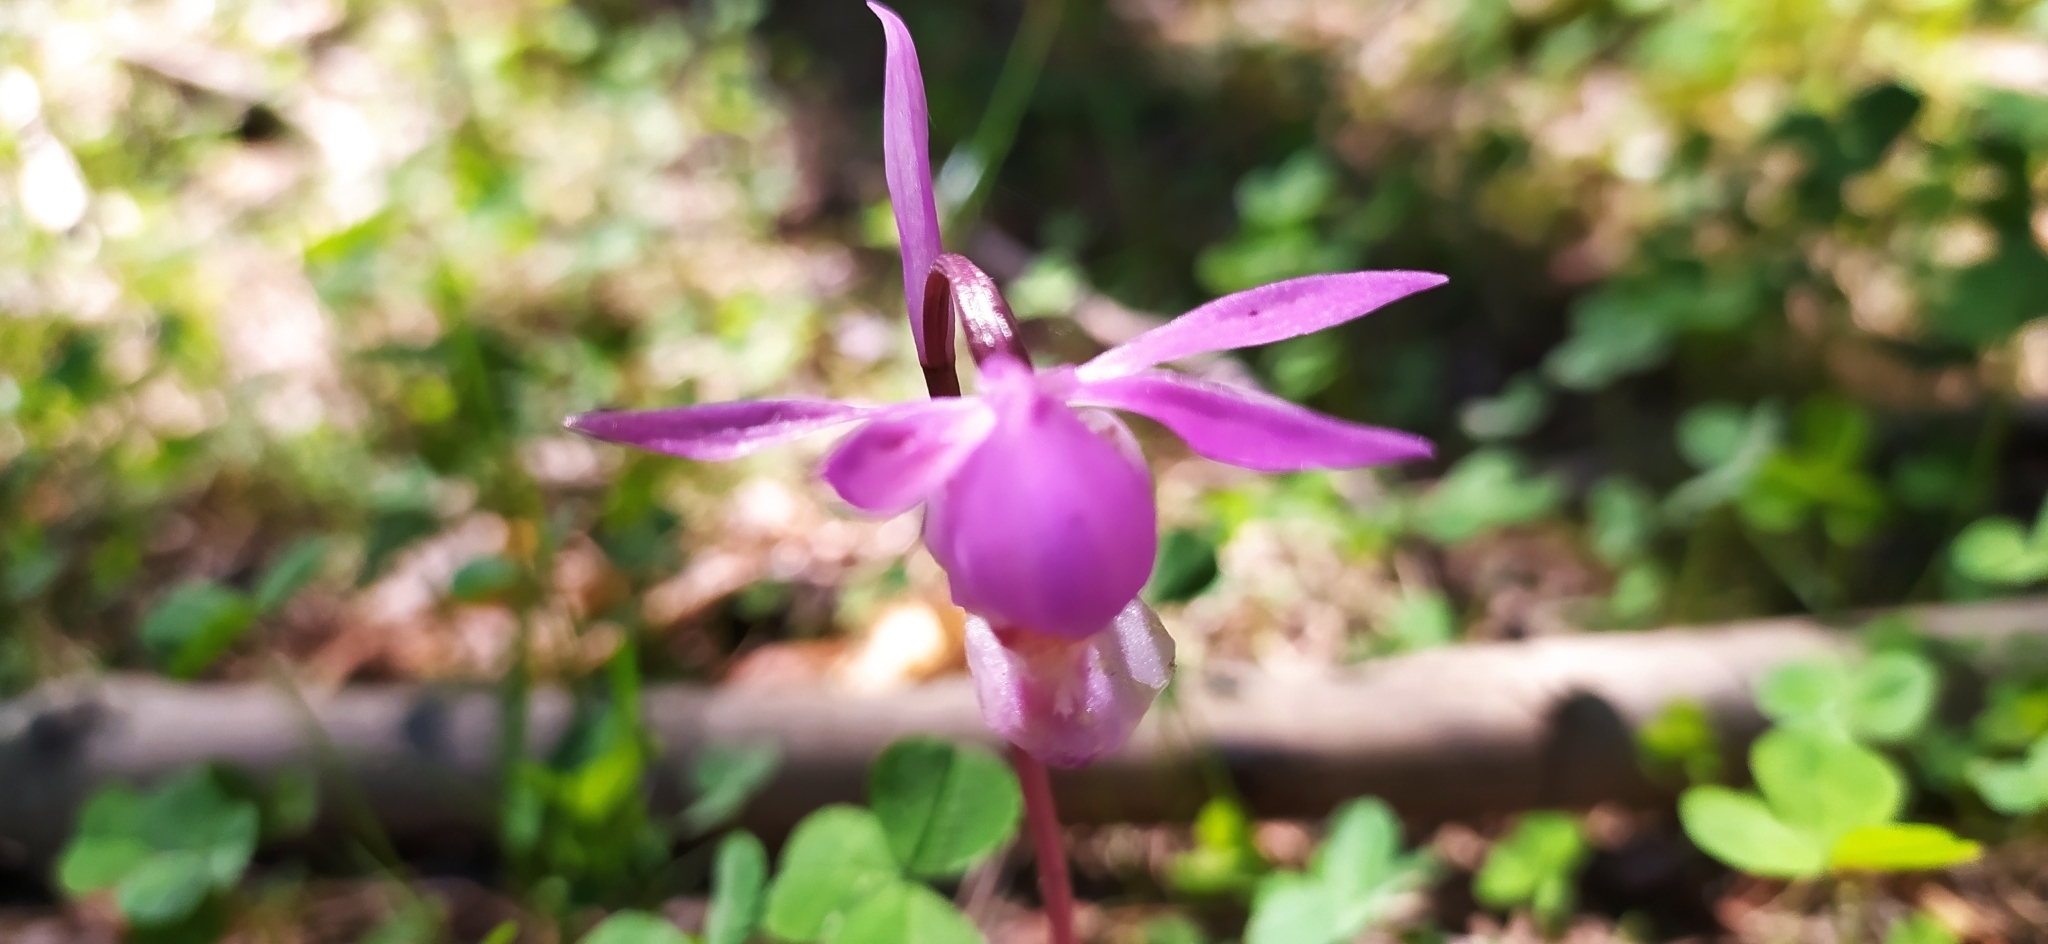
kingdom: Plantae
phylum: Tracheophyta
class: Liliopsida
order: Asparagales
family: Orchidaceae
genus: Calypso
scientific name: Calypso bulbosa
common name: Calypso
